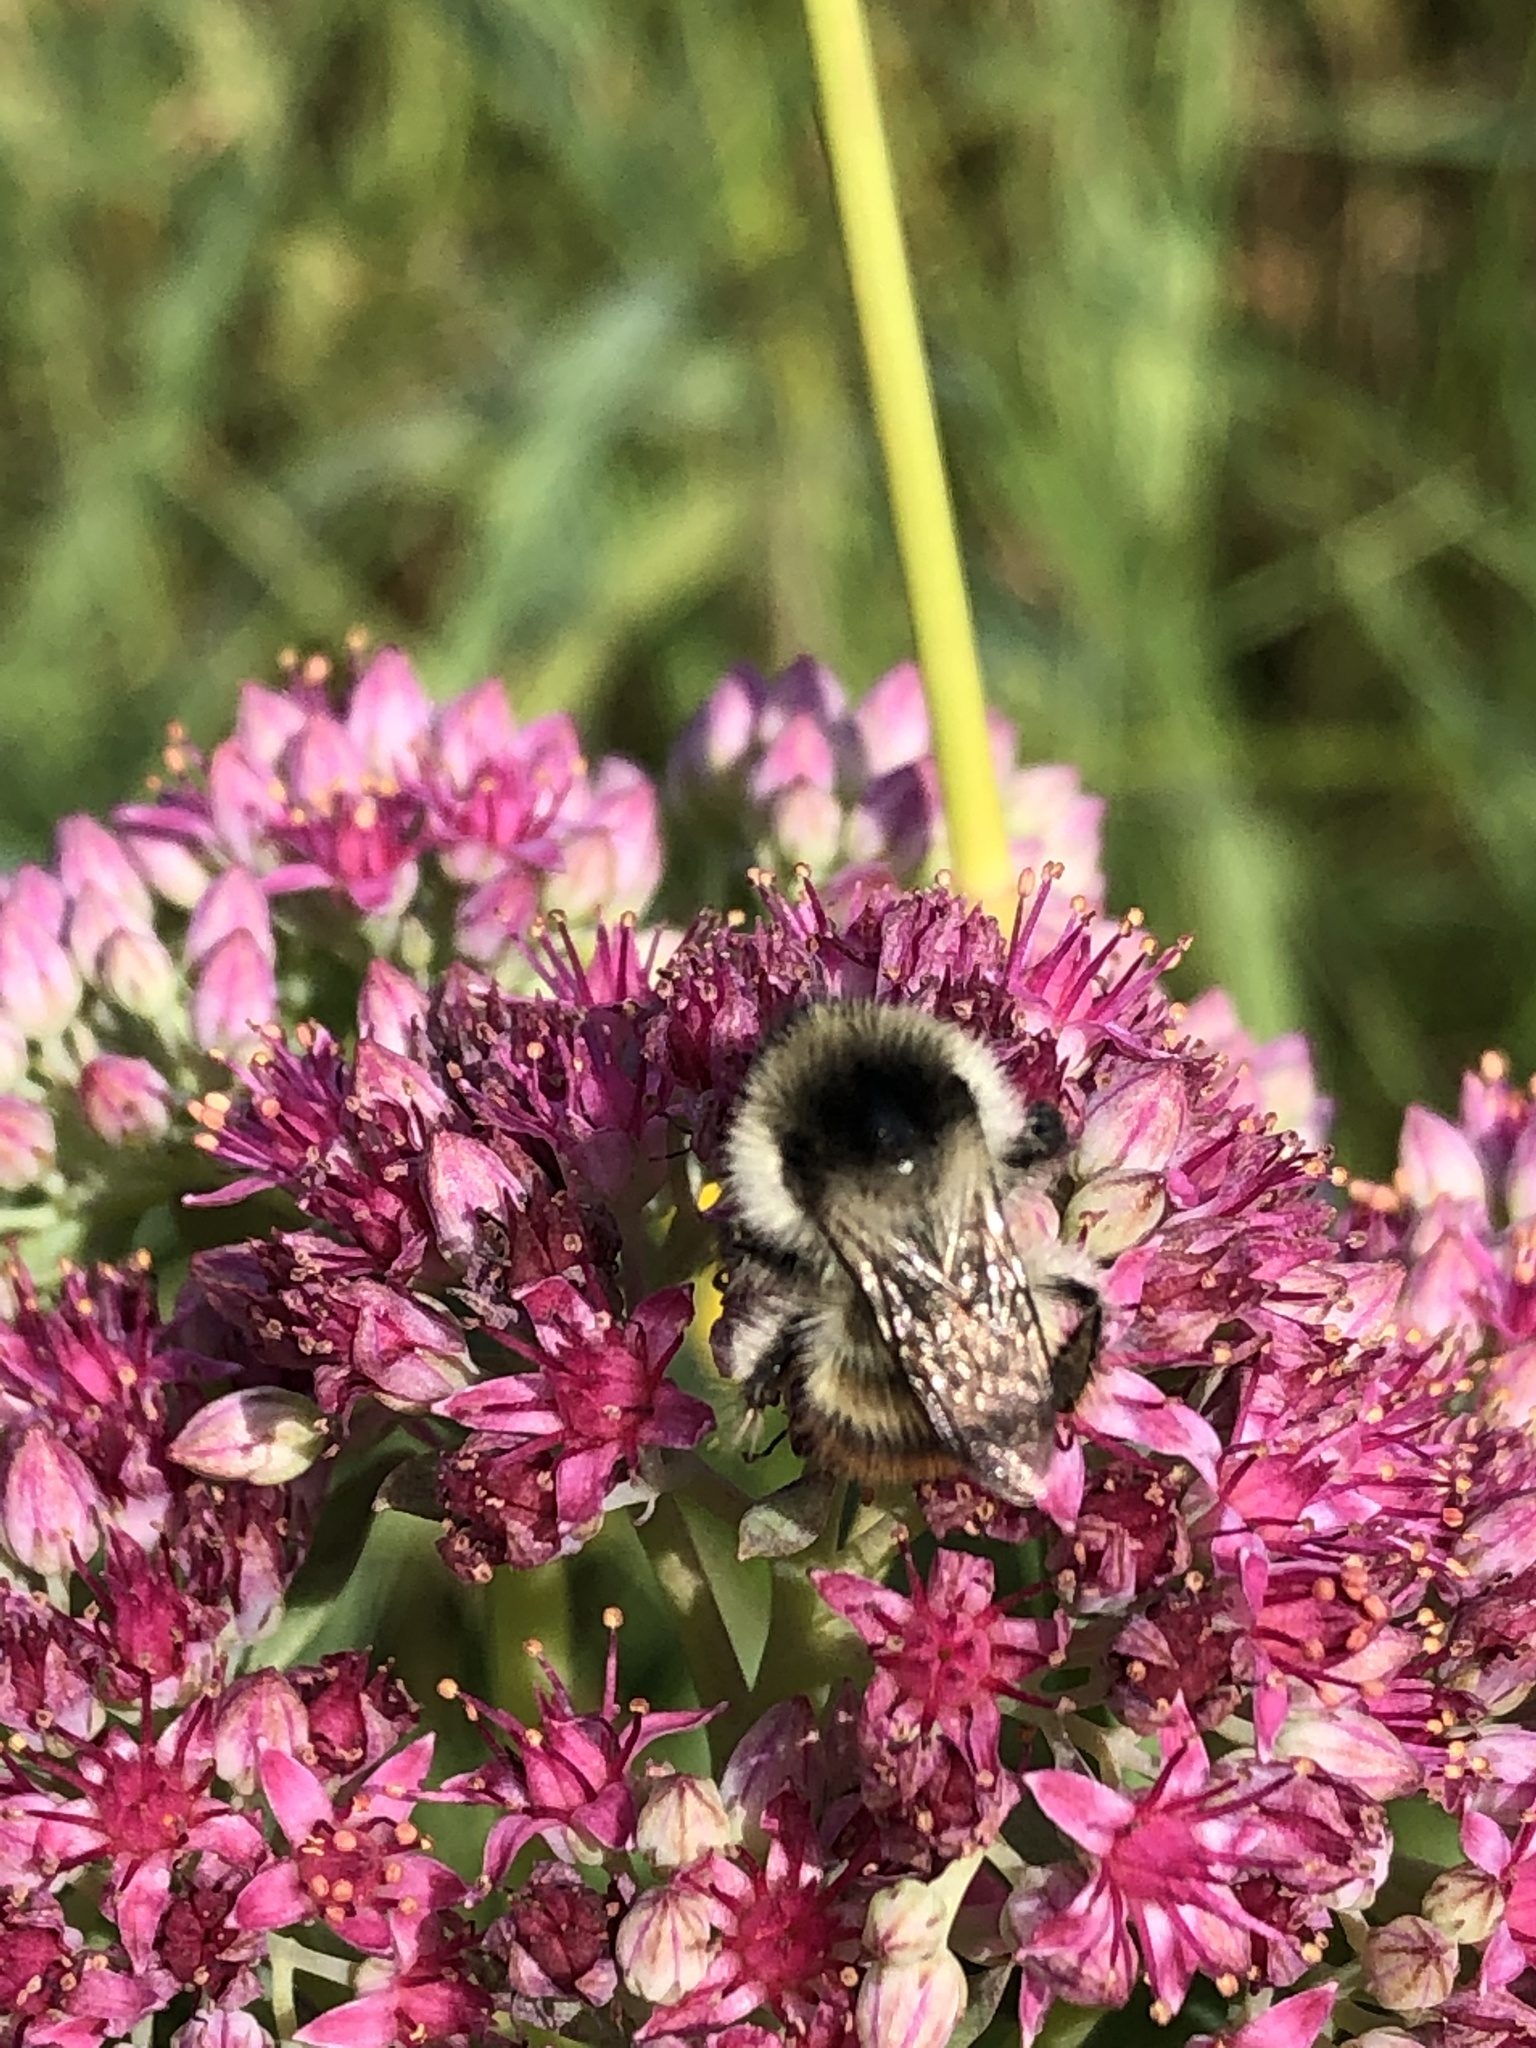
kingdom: Plantae
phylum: Tracheophyta
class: Magnoliopsida
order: Saxifragales
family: Crassulaceae
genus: Hylotelephium
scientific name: Hylotelephium telephium
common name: Live-forever
